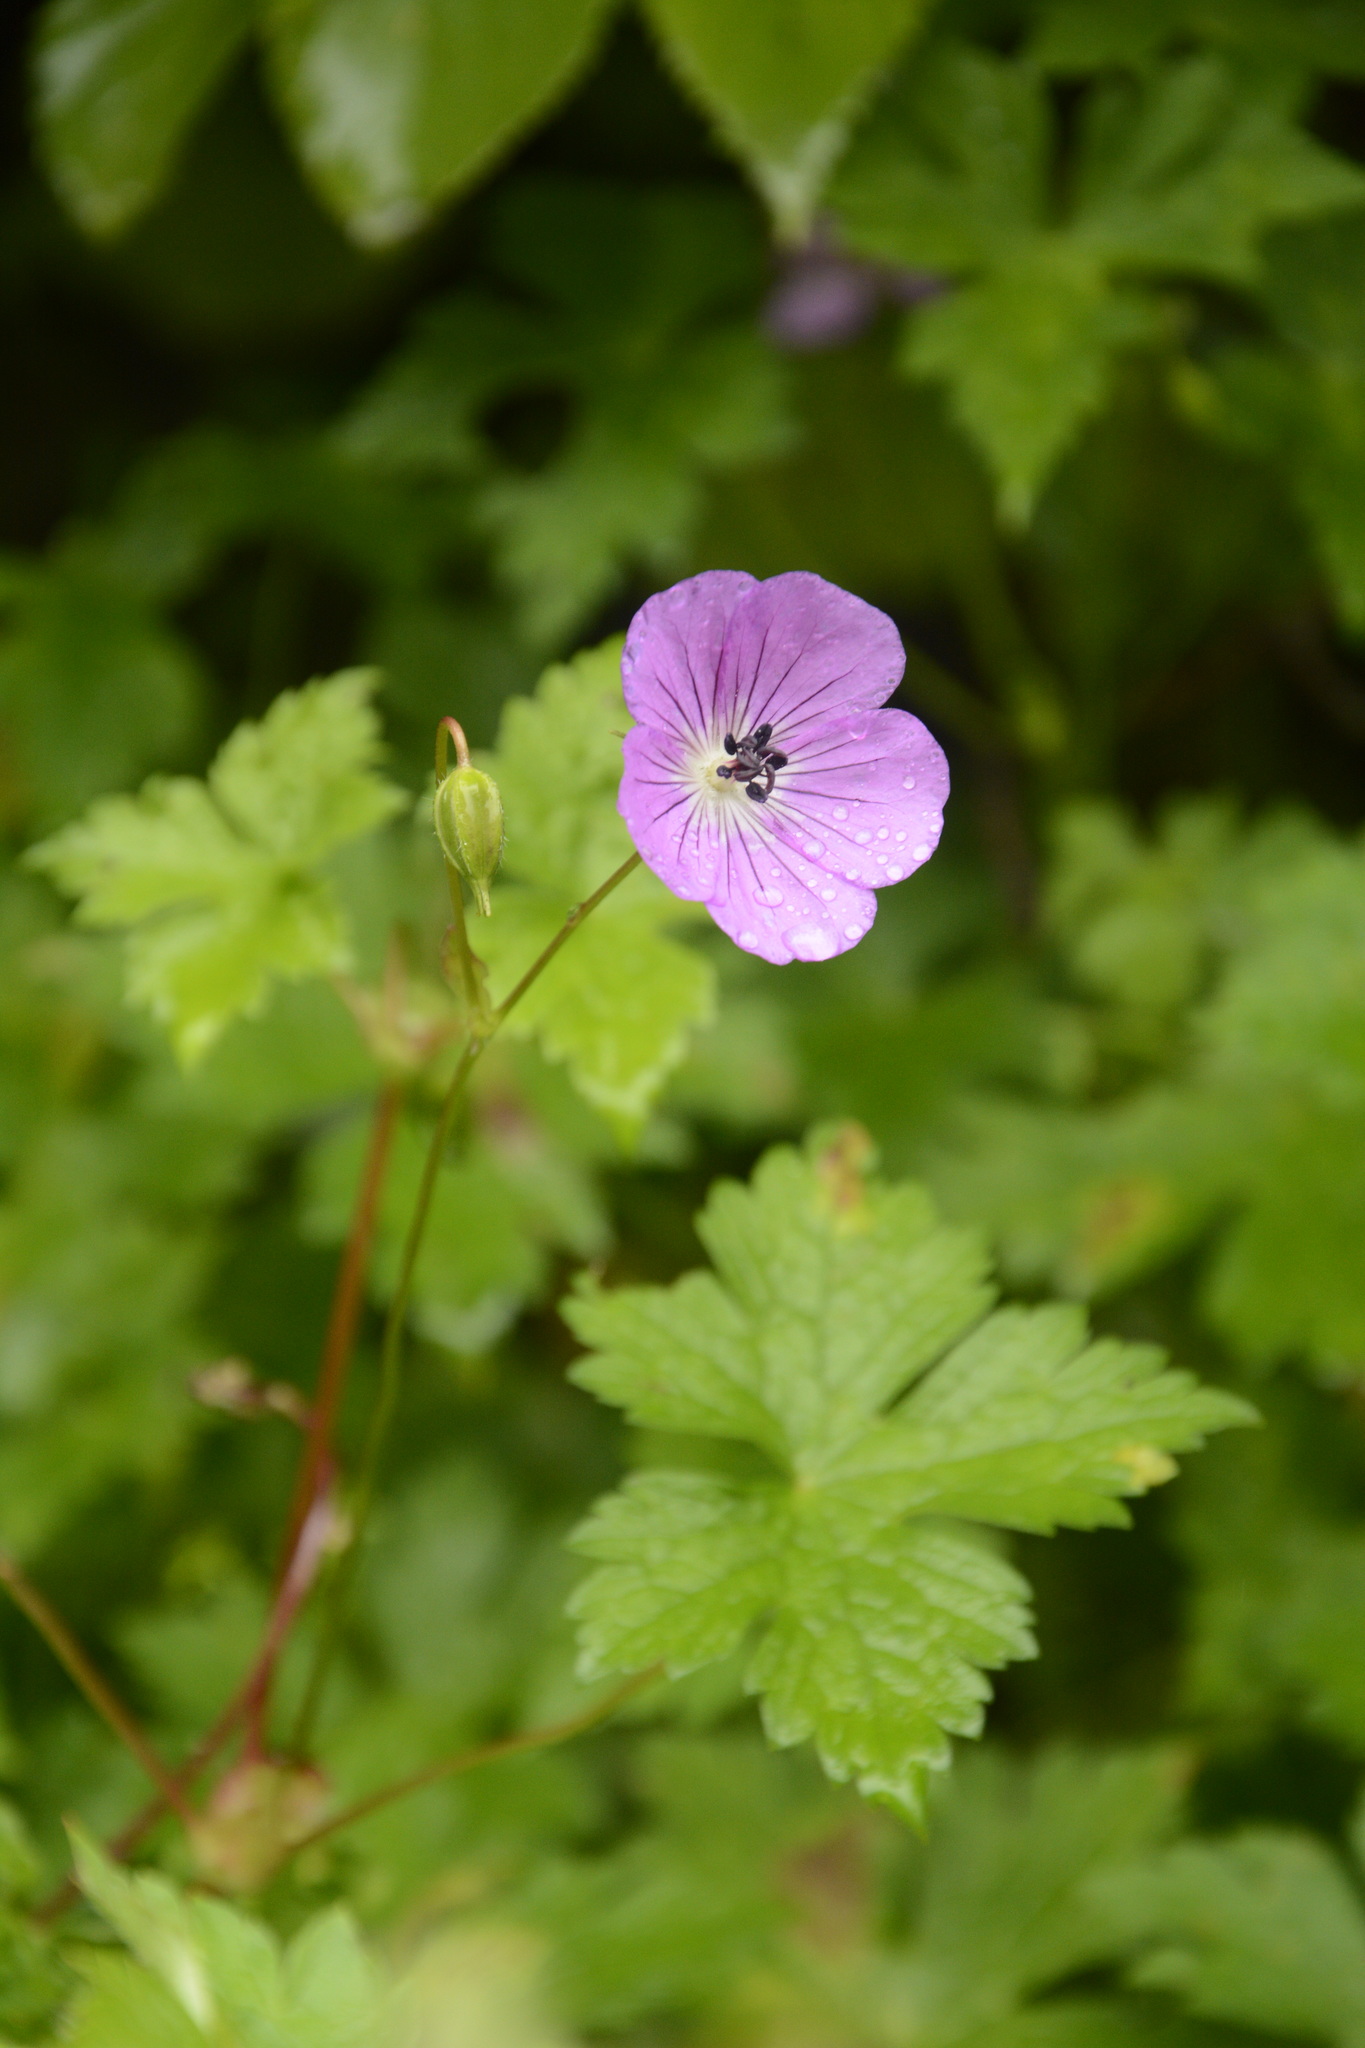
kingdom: Plantae
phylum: Tracheophyta
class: Magnoliopsida
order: Geraniales
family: Geraniaceae
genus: Geranium
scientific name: Geranium wallichianum
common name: Buxton's blue
